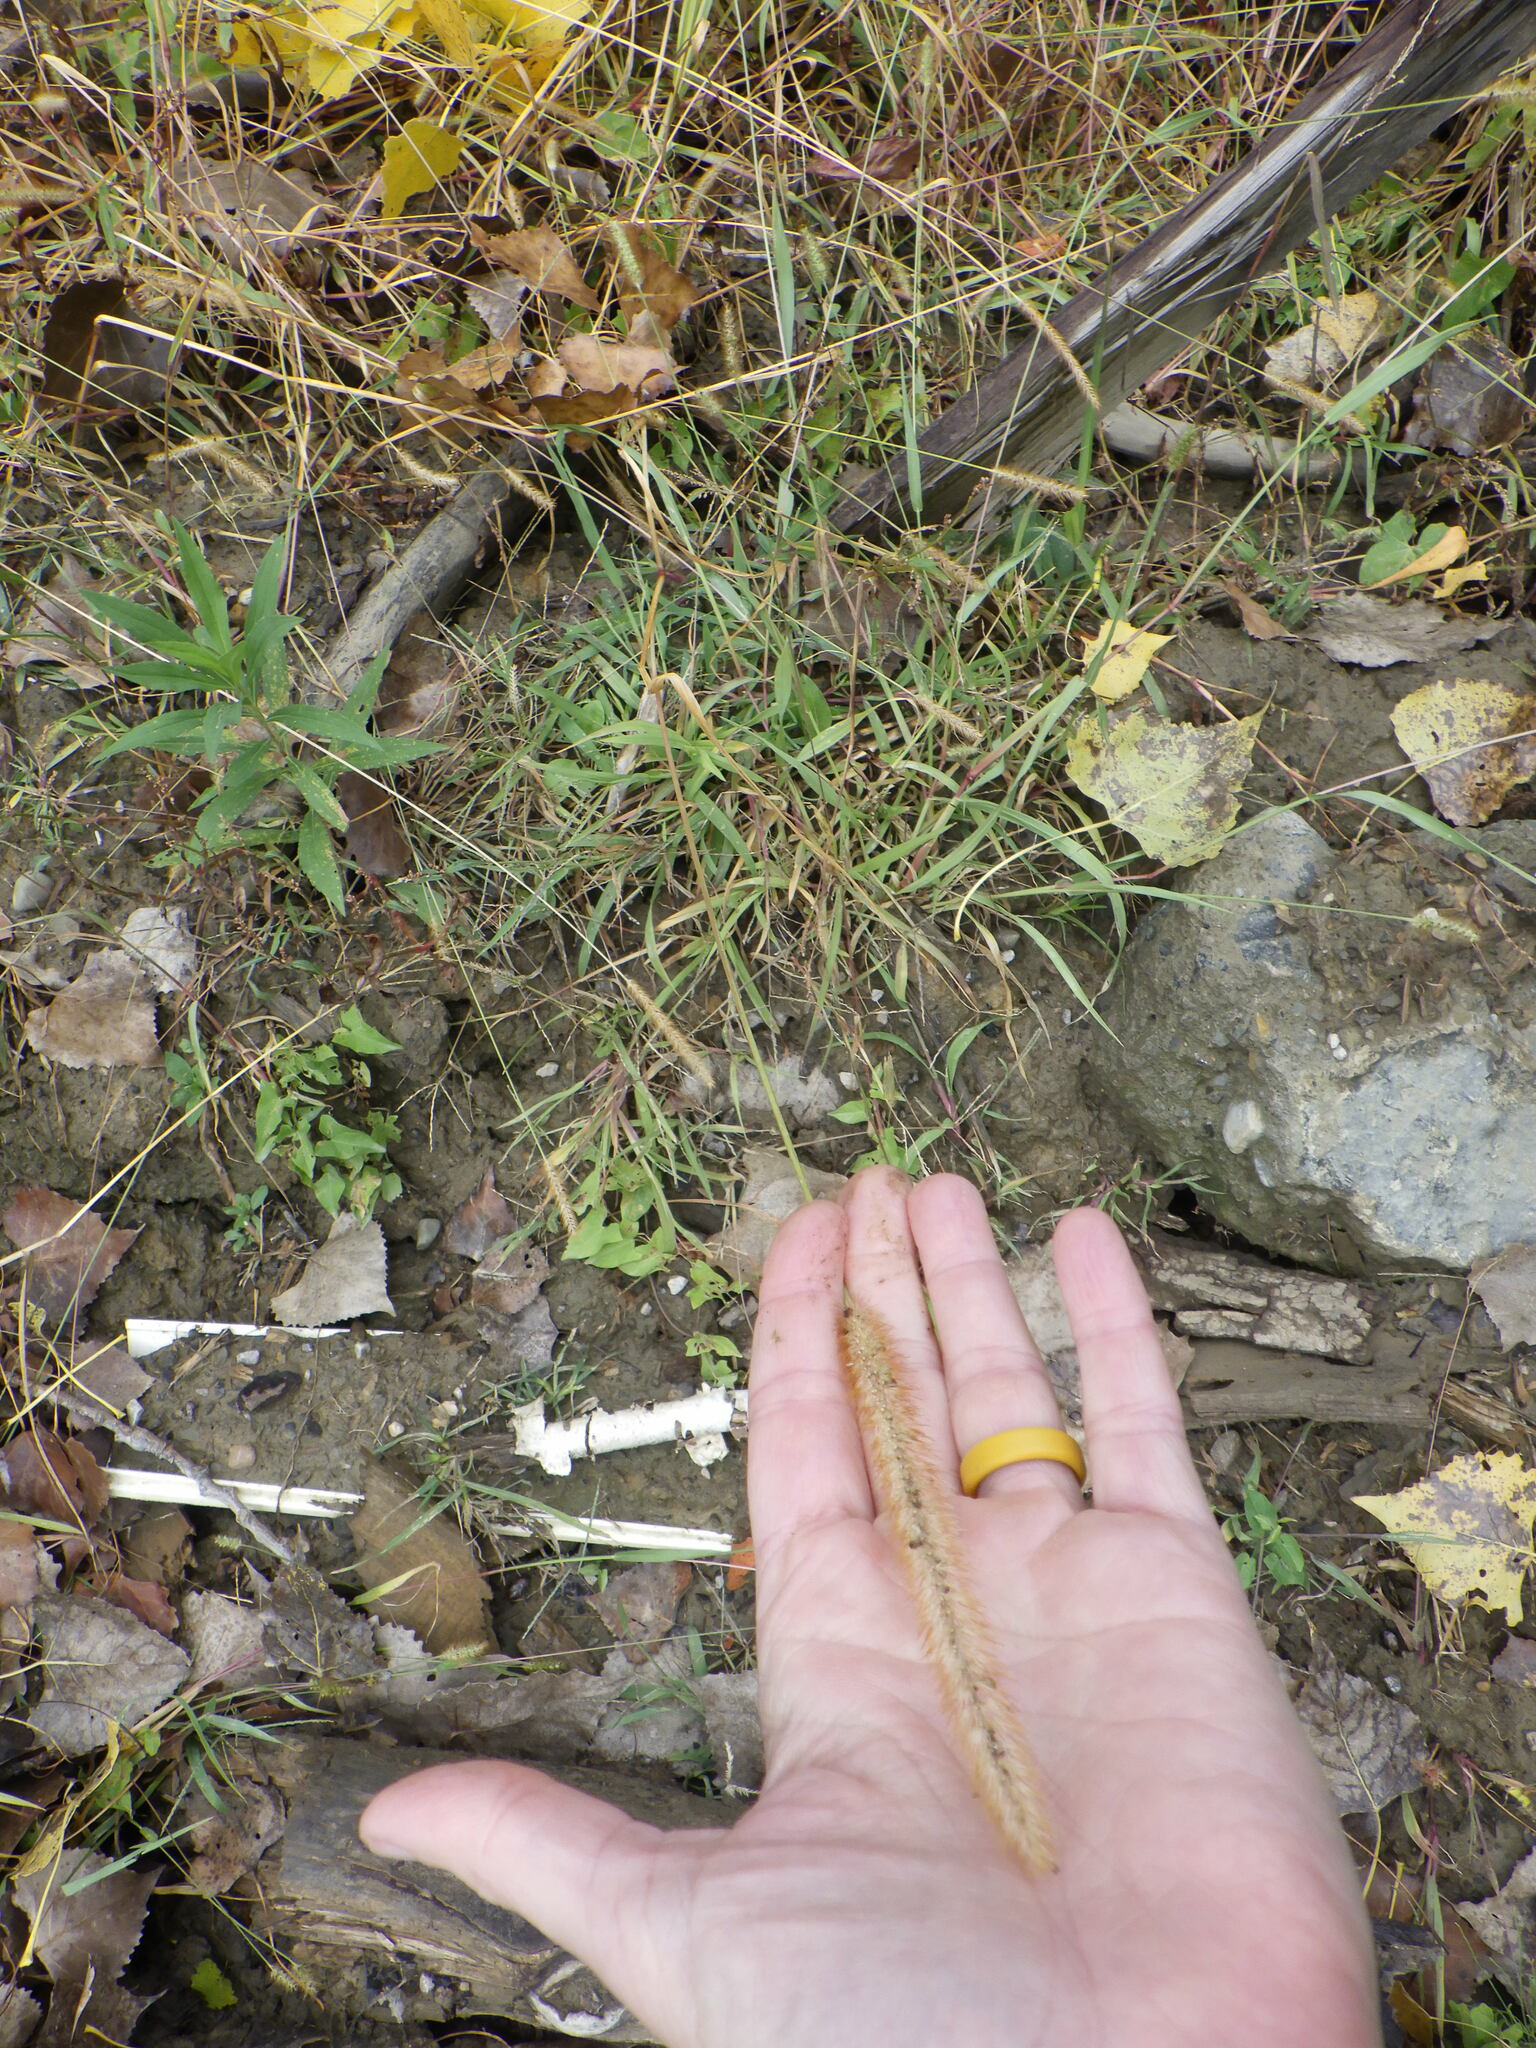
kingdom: Plantae
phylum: Tracheophyta
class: Liliopsida
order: Poales
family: Poaceae
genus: Setaria
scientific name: Setaria pumila
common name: Yellow bristle-grass
